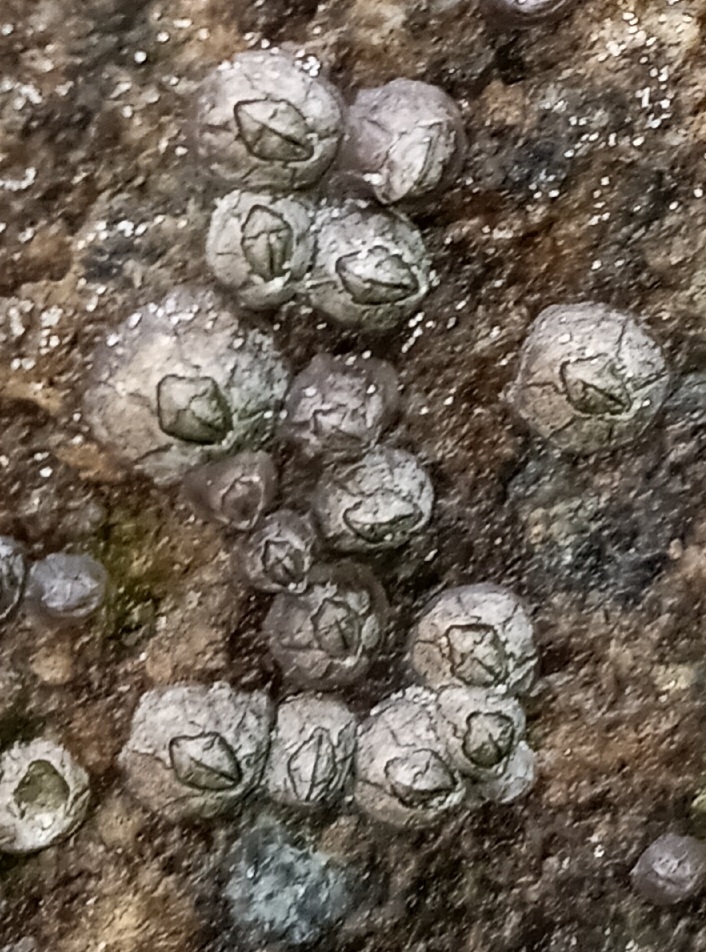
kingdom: Animalia
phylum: Arthropoda
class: Maxillopoda
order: Sessilia
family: Chthamalidae
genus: Chthamalus
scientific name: Chthamalus fragilis
